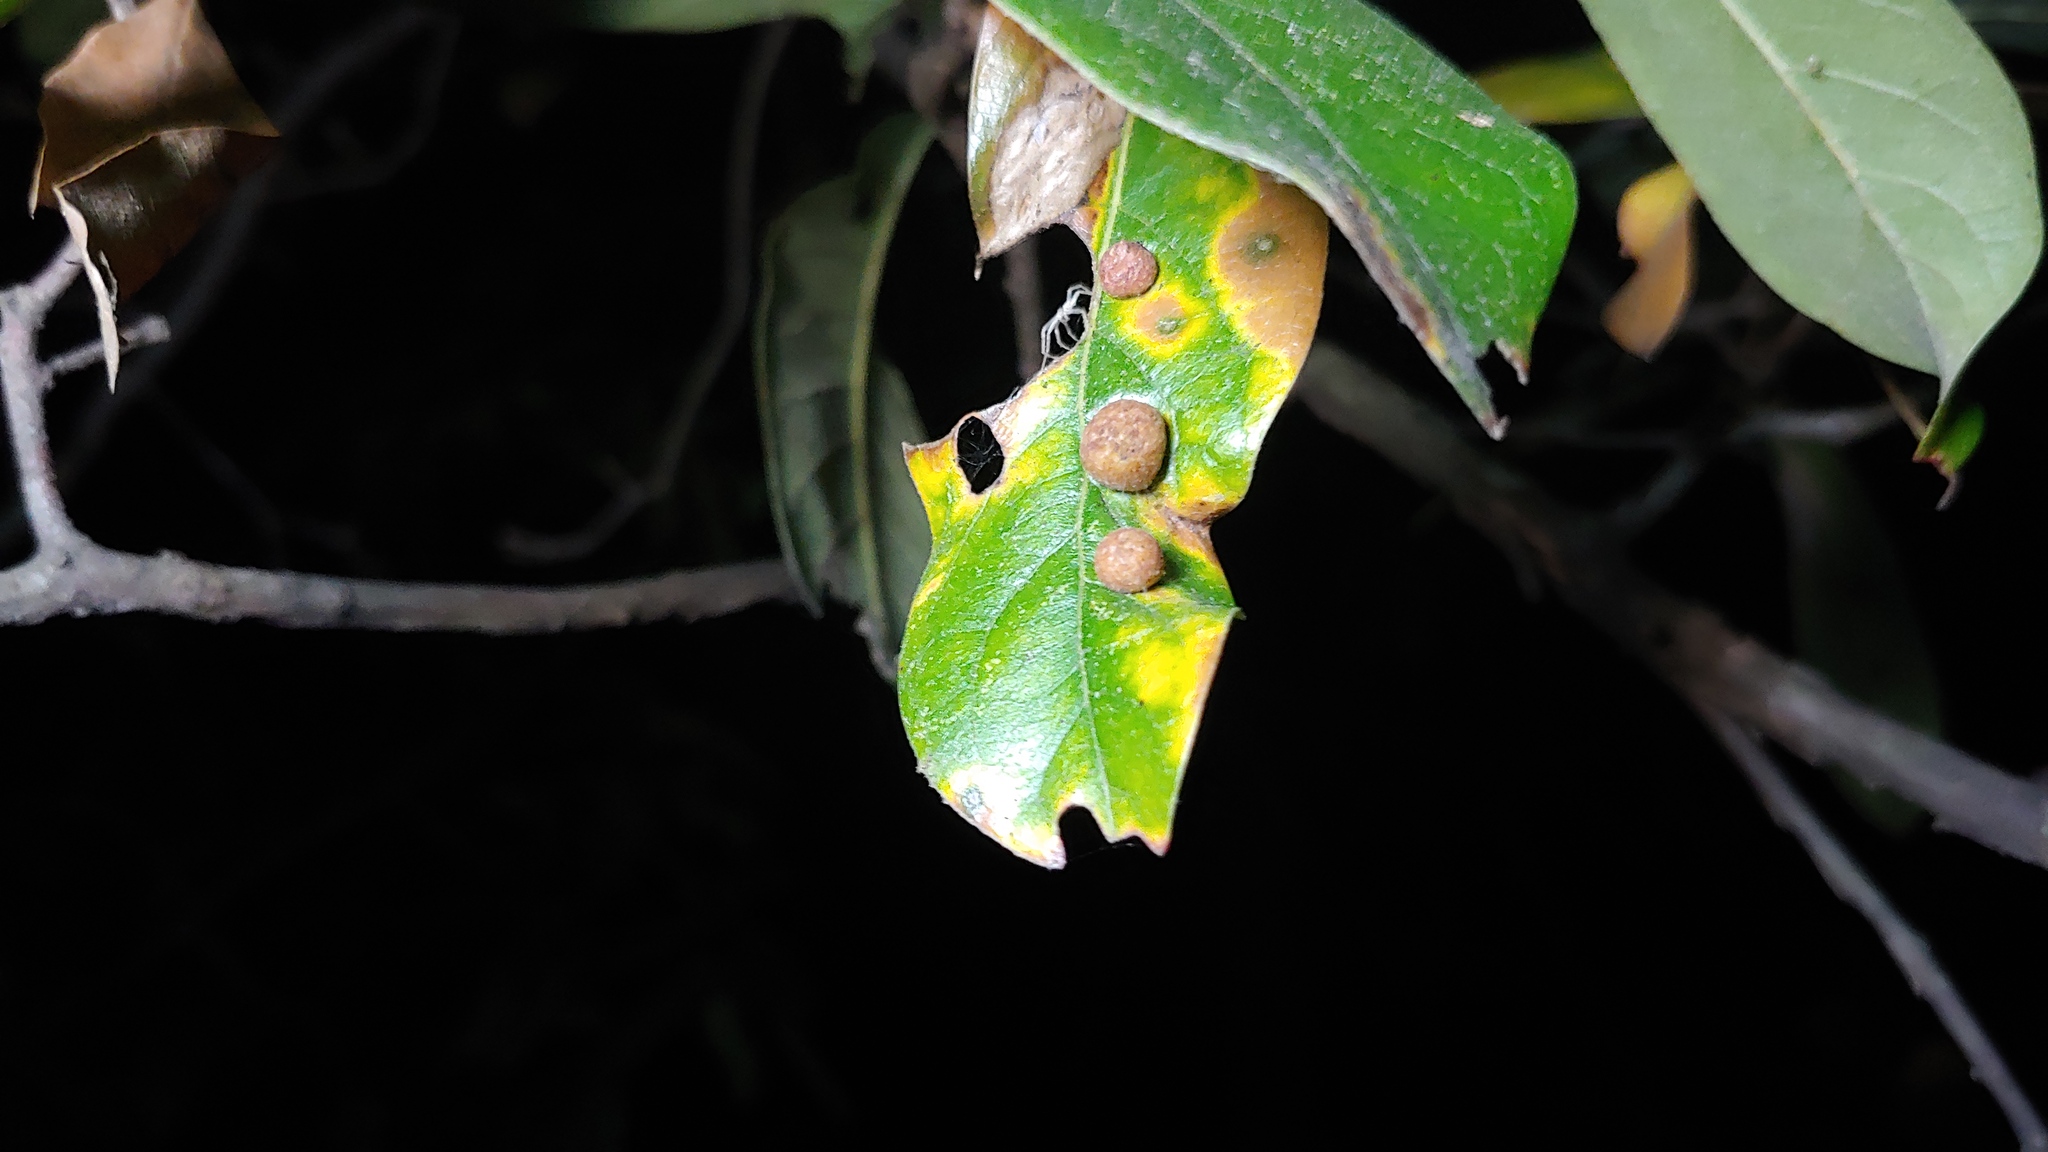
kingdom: Animalia
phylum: Arthropoda
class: Insecta
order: Diptera
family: Cecidomyiidae
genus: Polystepha
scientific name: Polystepha pilulae
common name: Oak leaf gall midge
